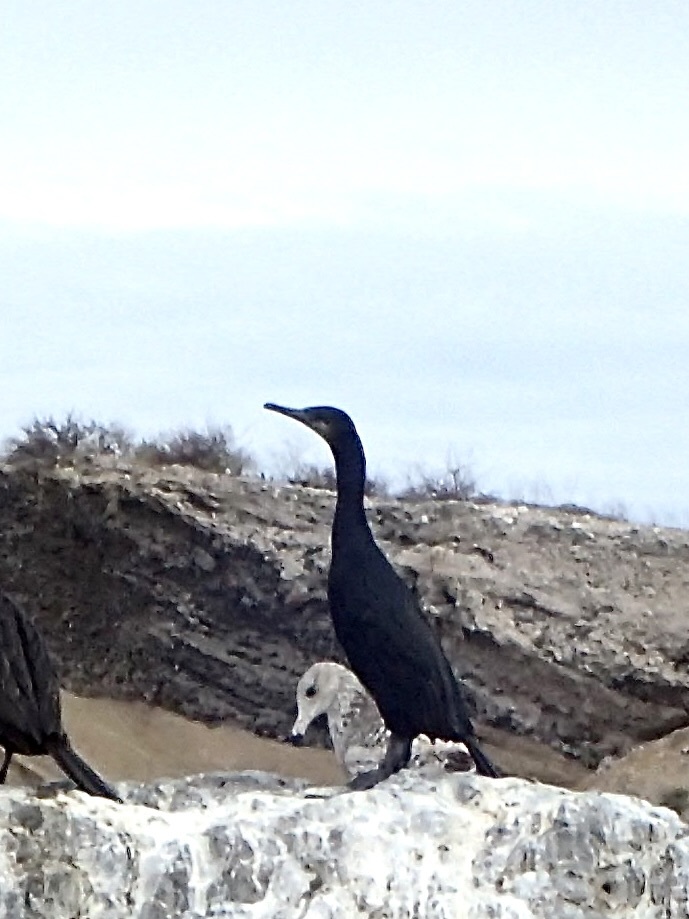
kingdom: Animalia
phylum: Chordata
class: Aves
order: Suliformes
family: Phalacrocoracidae
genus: Urile
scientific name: Urile penicillatus
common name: Brandt's cormorant
